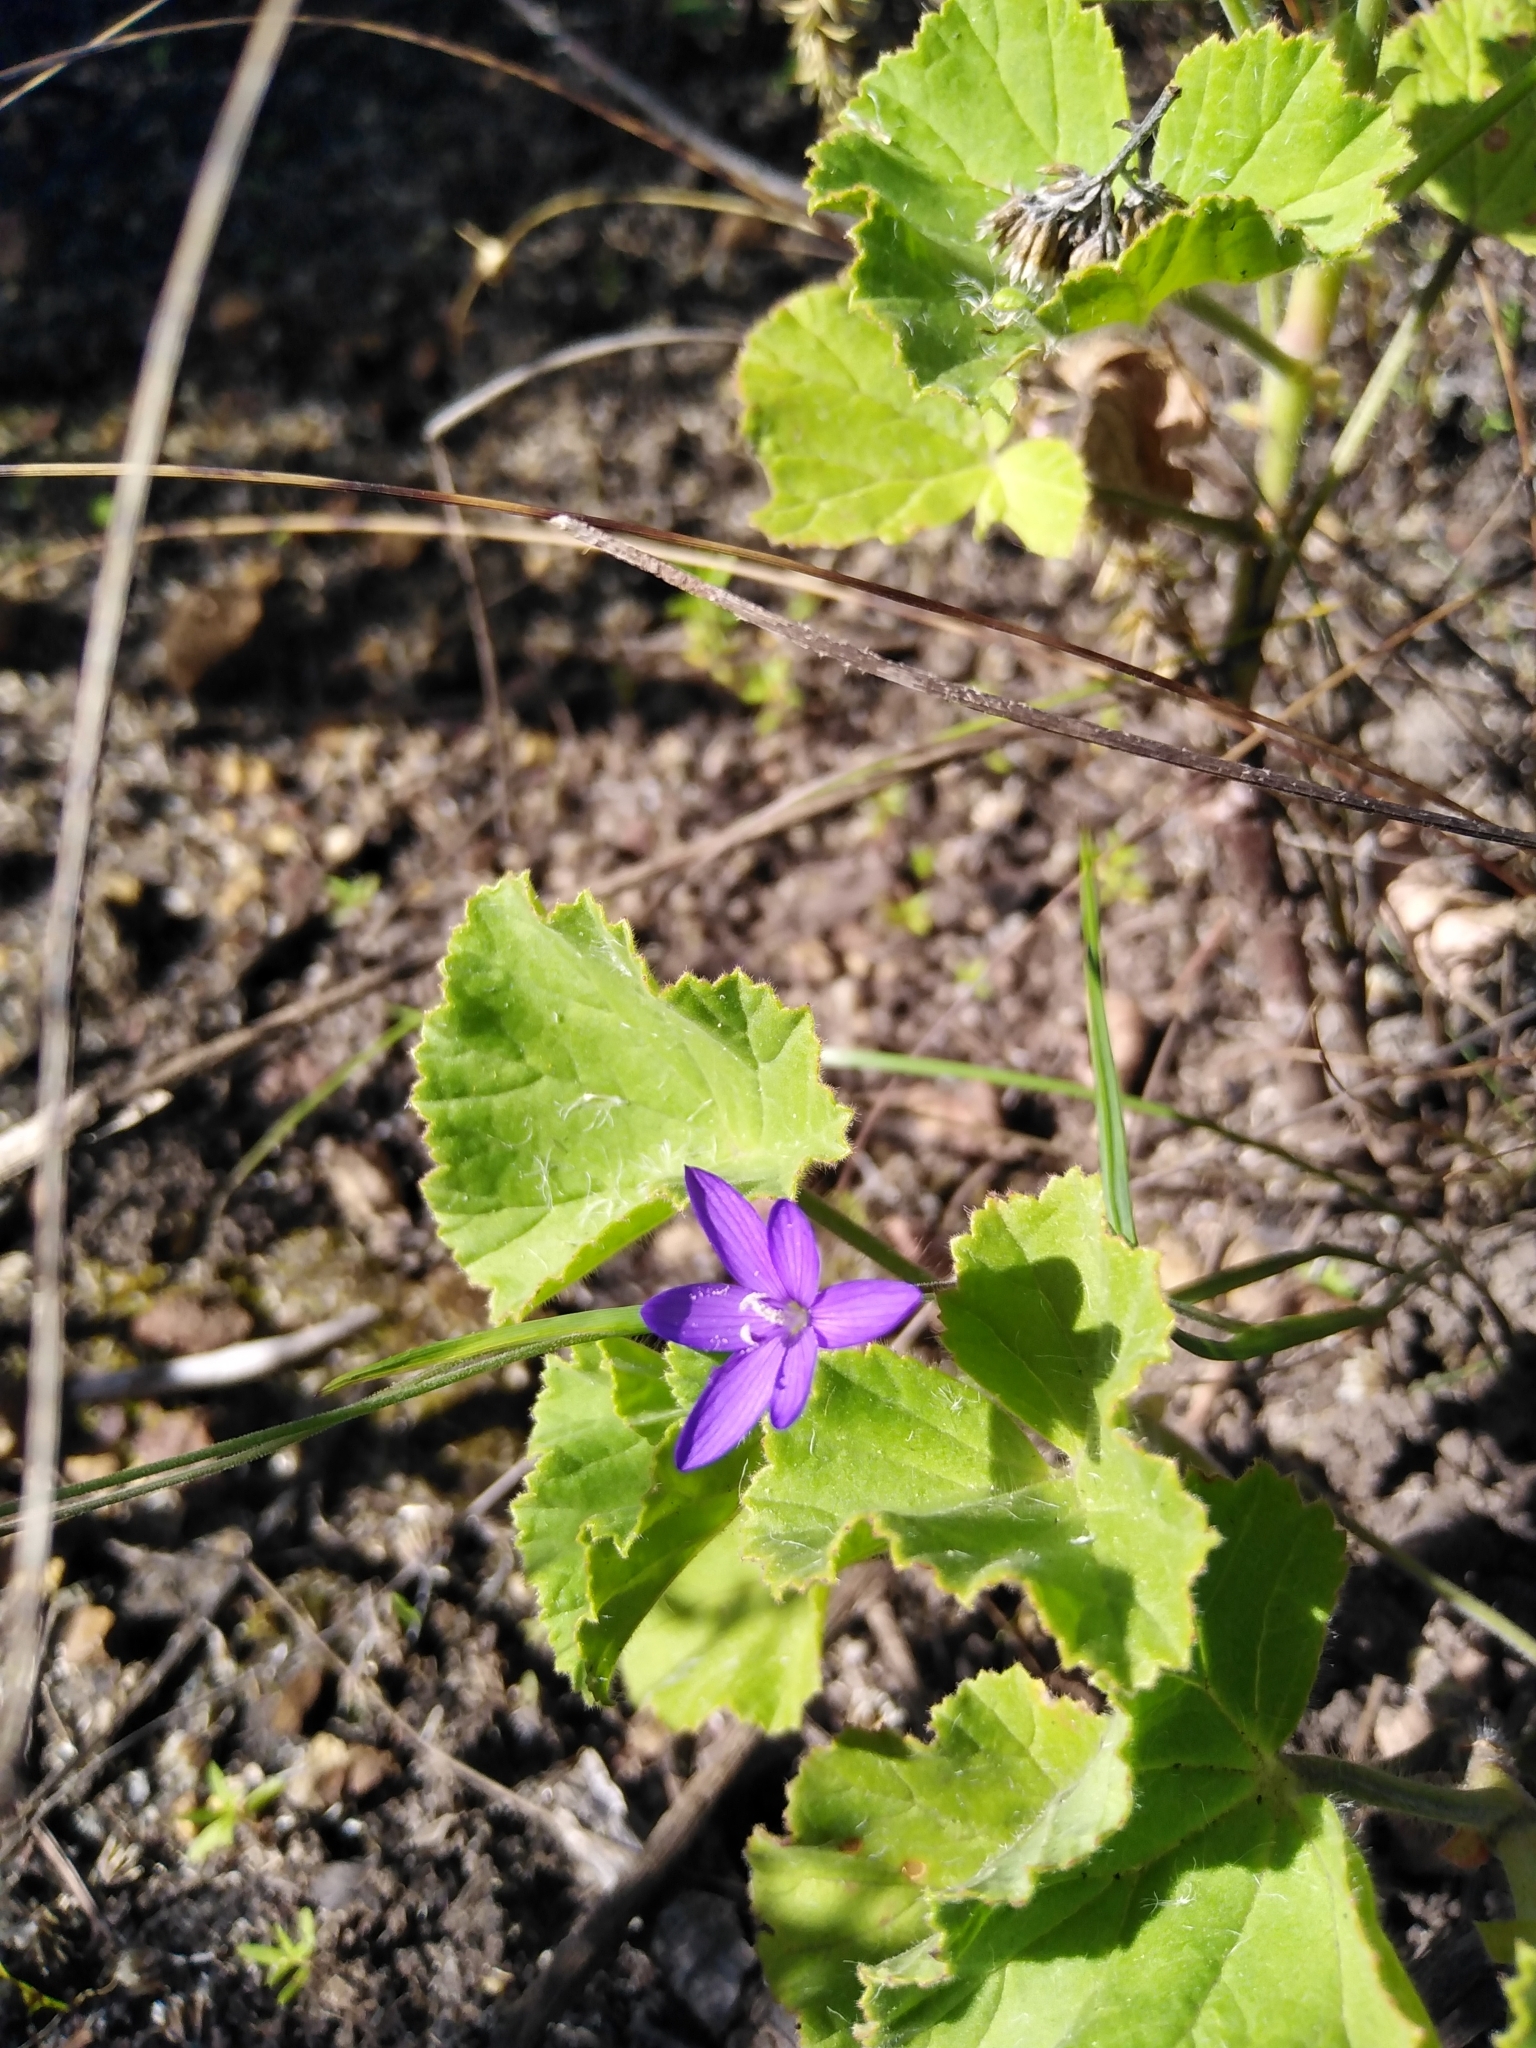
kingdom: Plantae
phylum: Tracheophyta
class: Liliopsida
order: Asparagales
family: Iridaceae
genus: Geissorhiza
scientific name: Geissorhiza aspera
